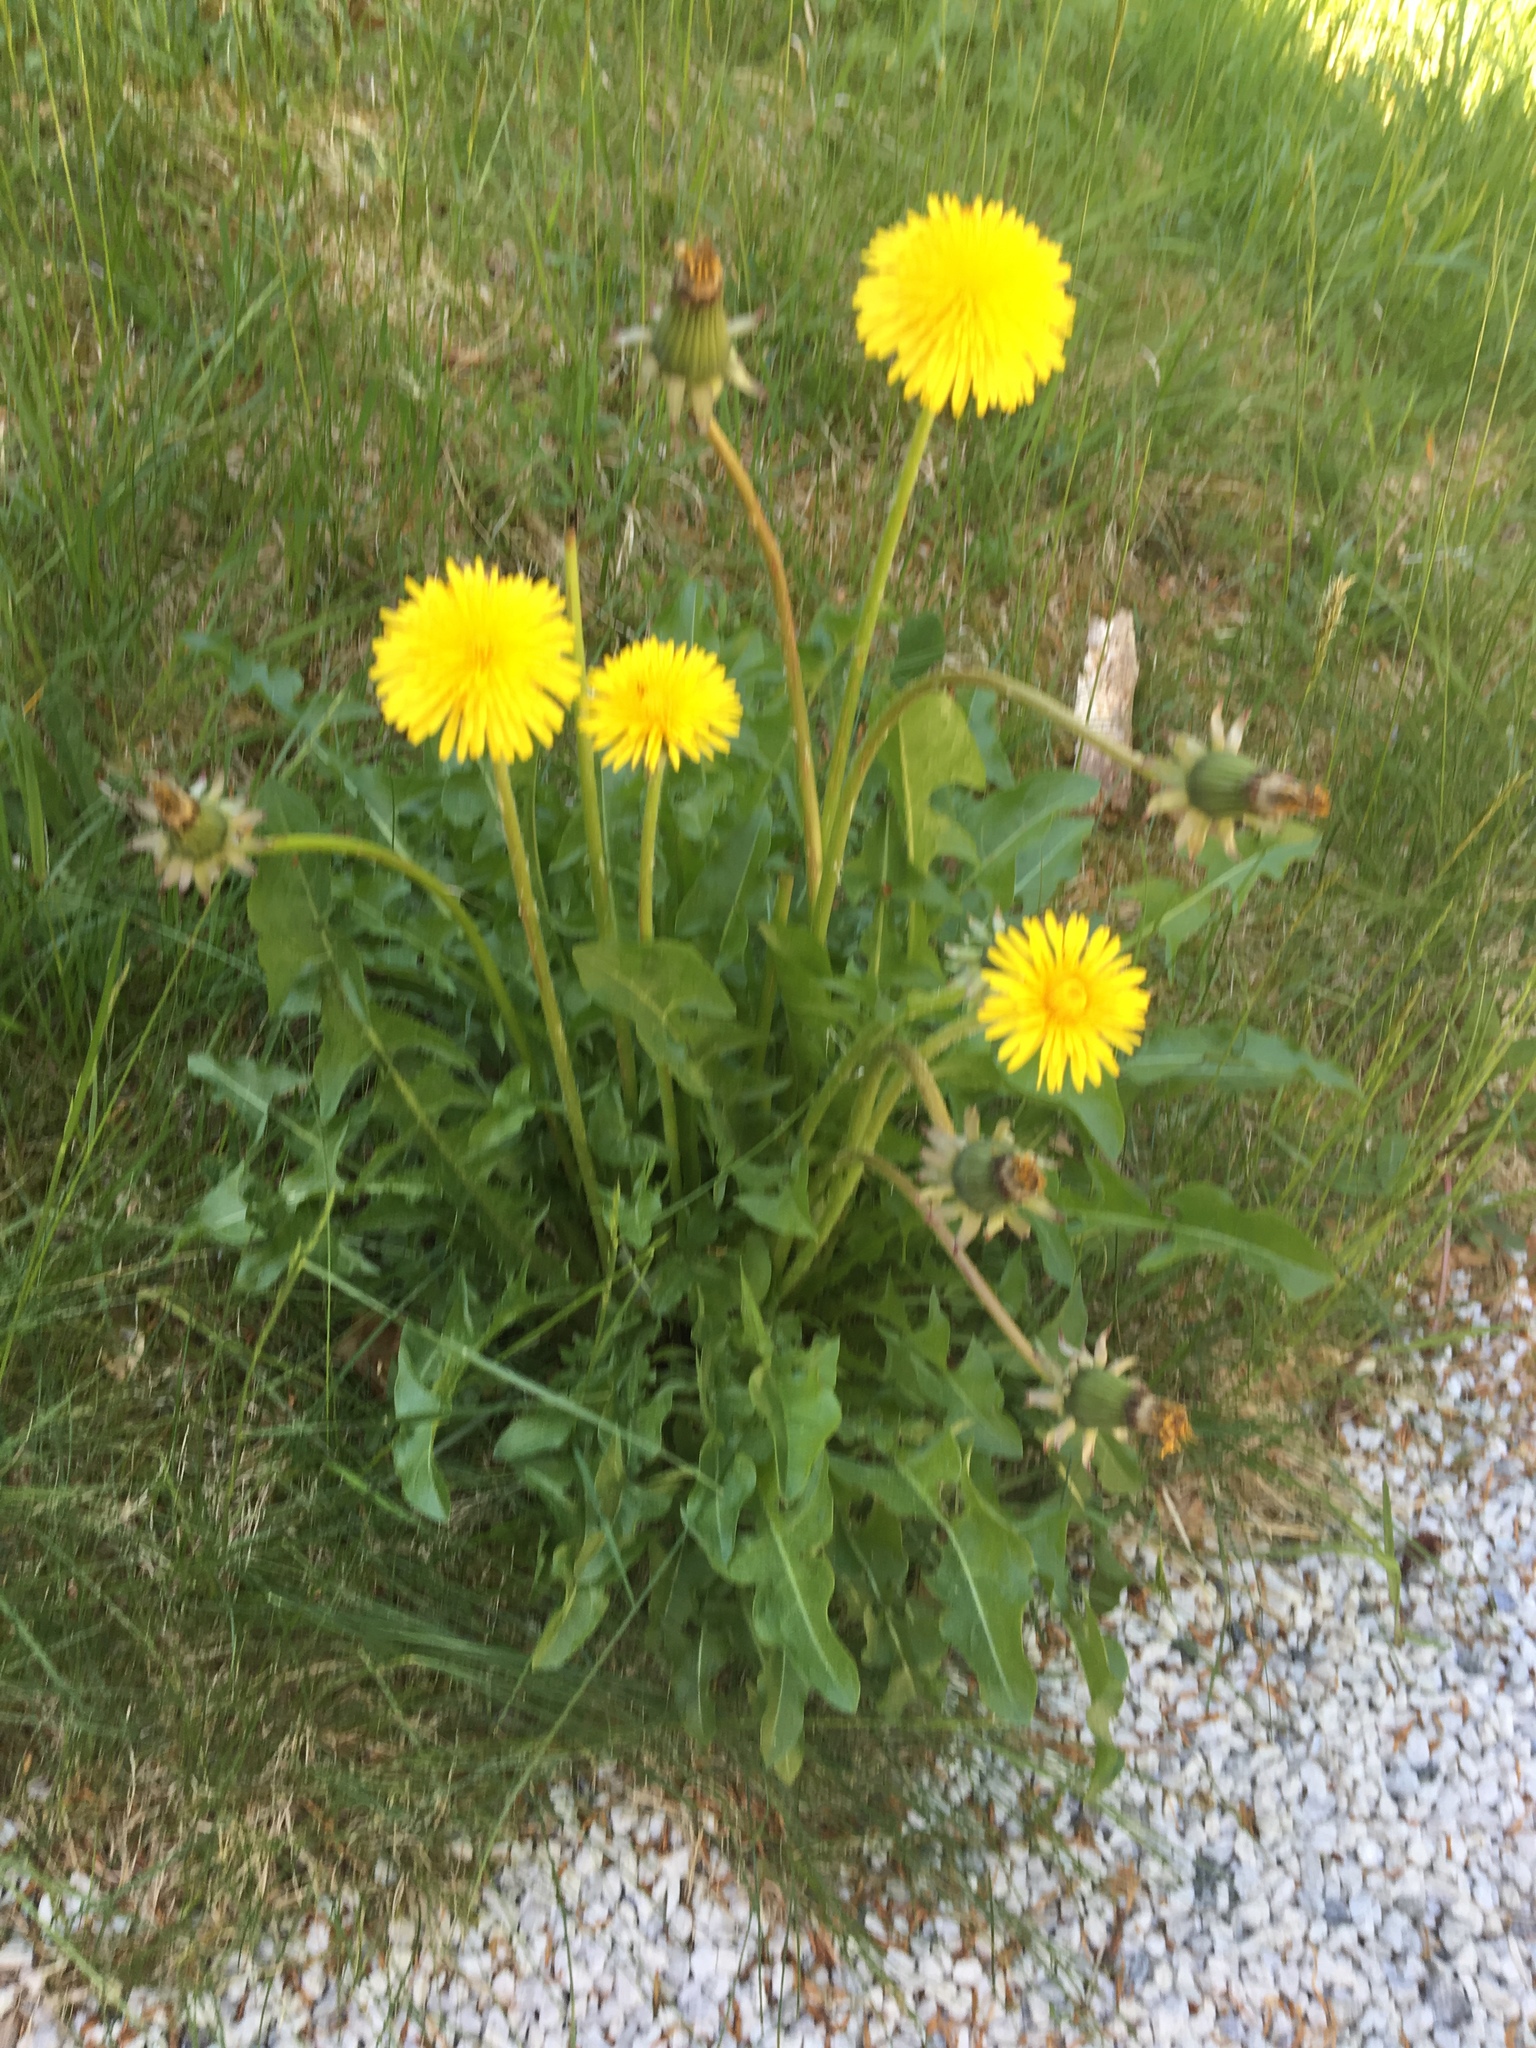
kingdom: Plantae
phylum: Tracheophyta
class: Magnoliopsida
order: Asterales
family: Asteraceae
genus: Taraxacum
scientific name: Taraxacum officinale
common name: Common dandelion
